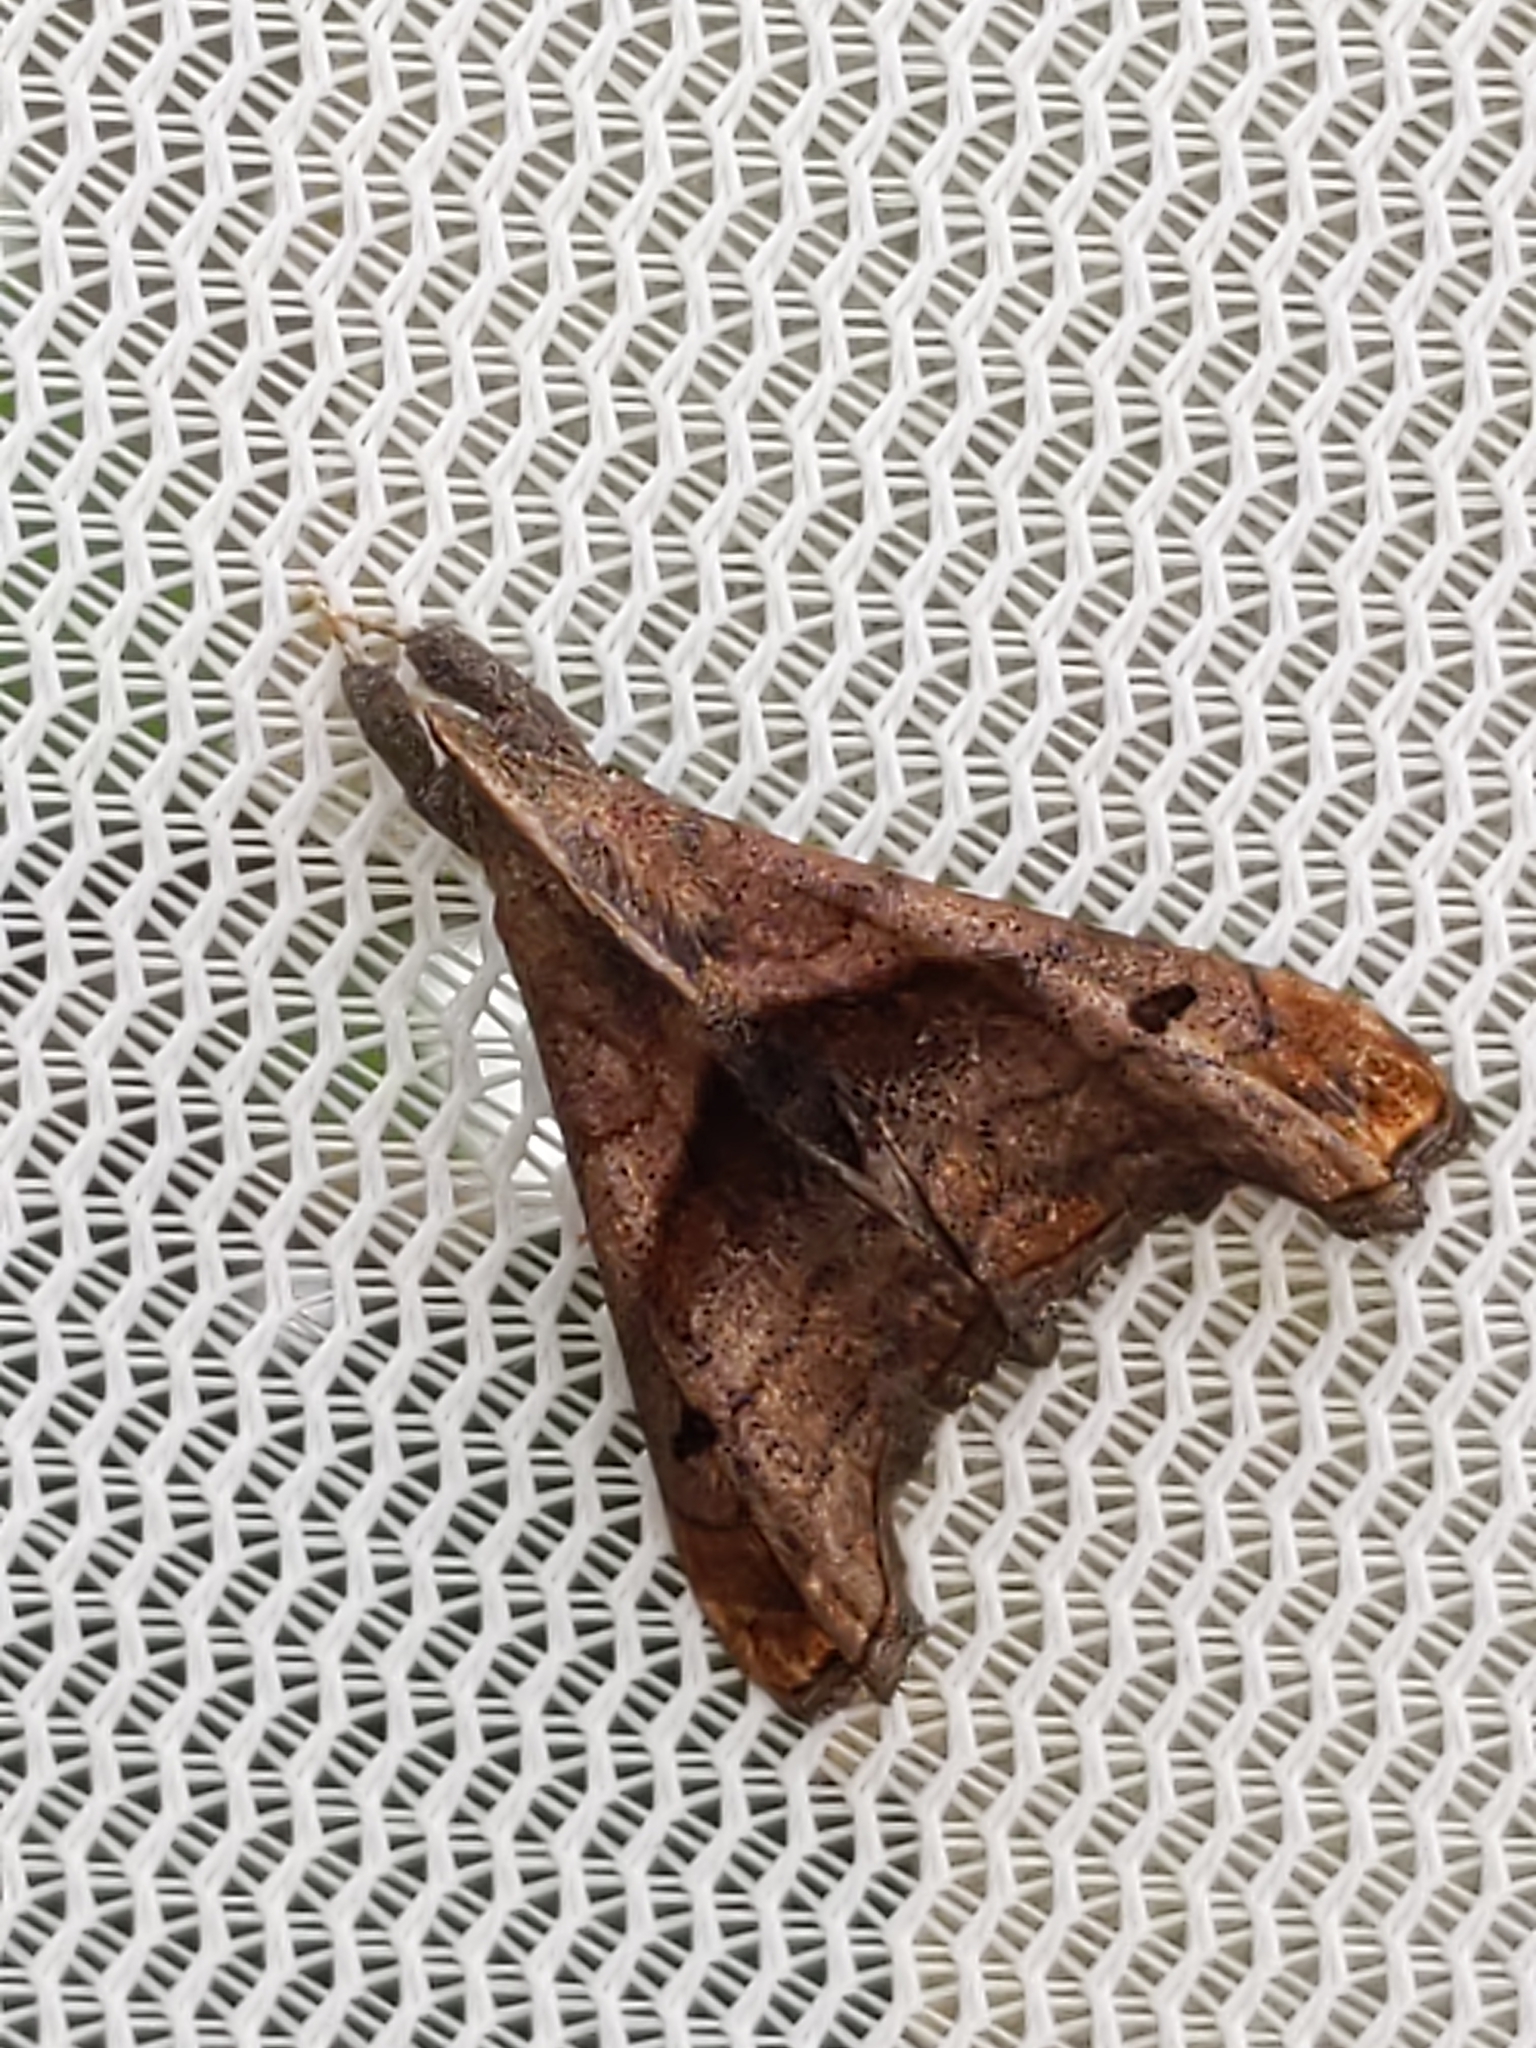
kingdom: Animalia
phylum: Arthropoda
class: Insecta
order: Lepidoptera
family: Erebidae
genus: Palthis
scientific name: Palthis angulalis
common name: Dark-spotted palthis moth
